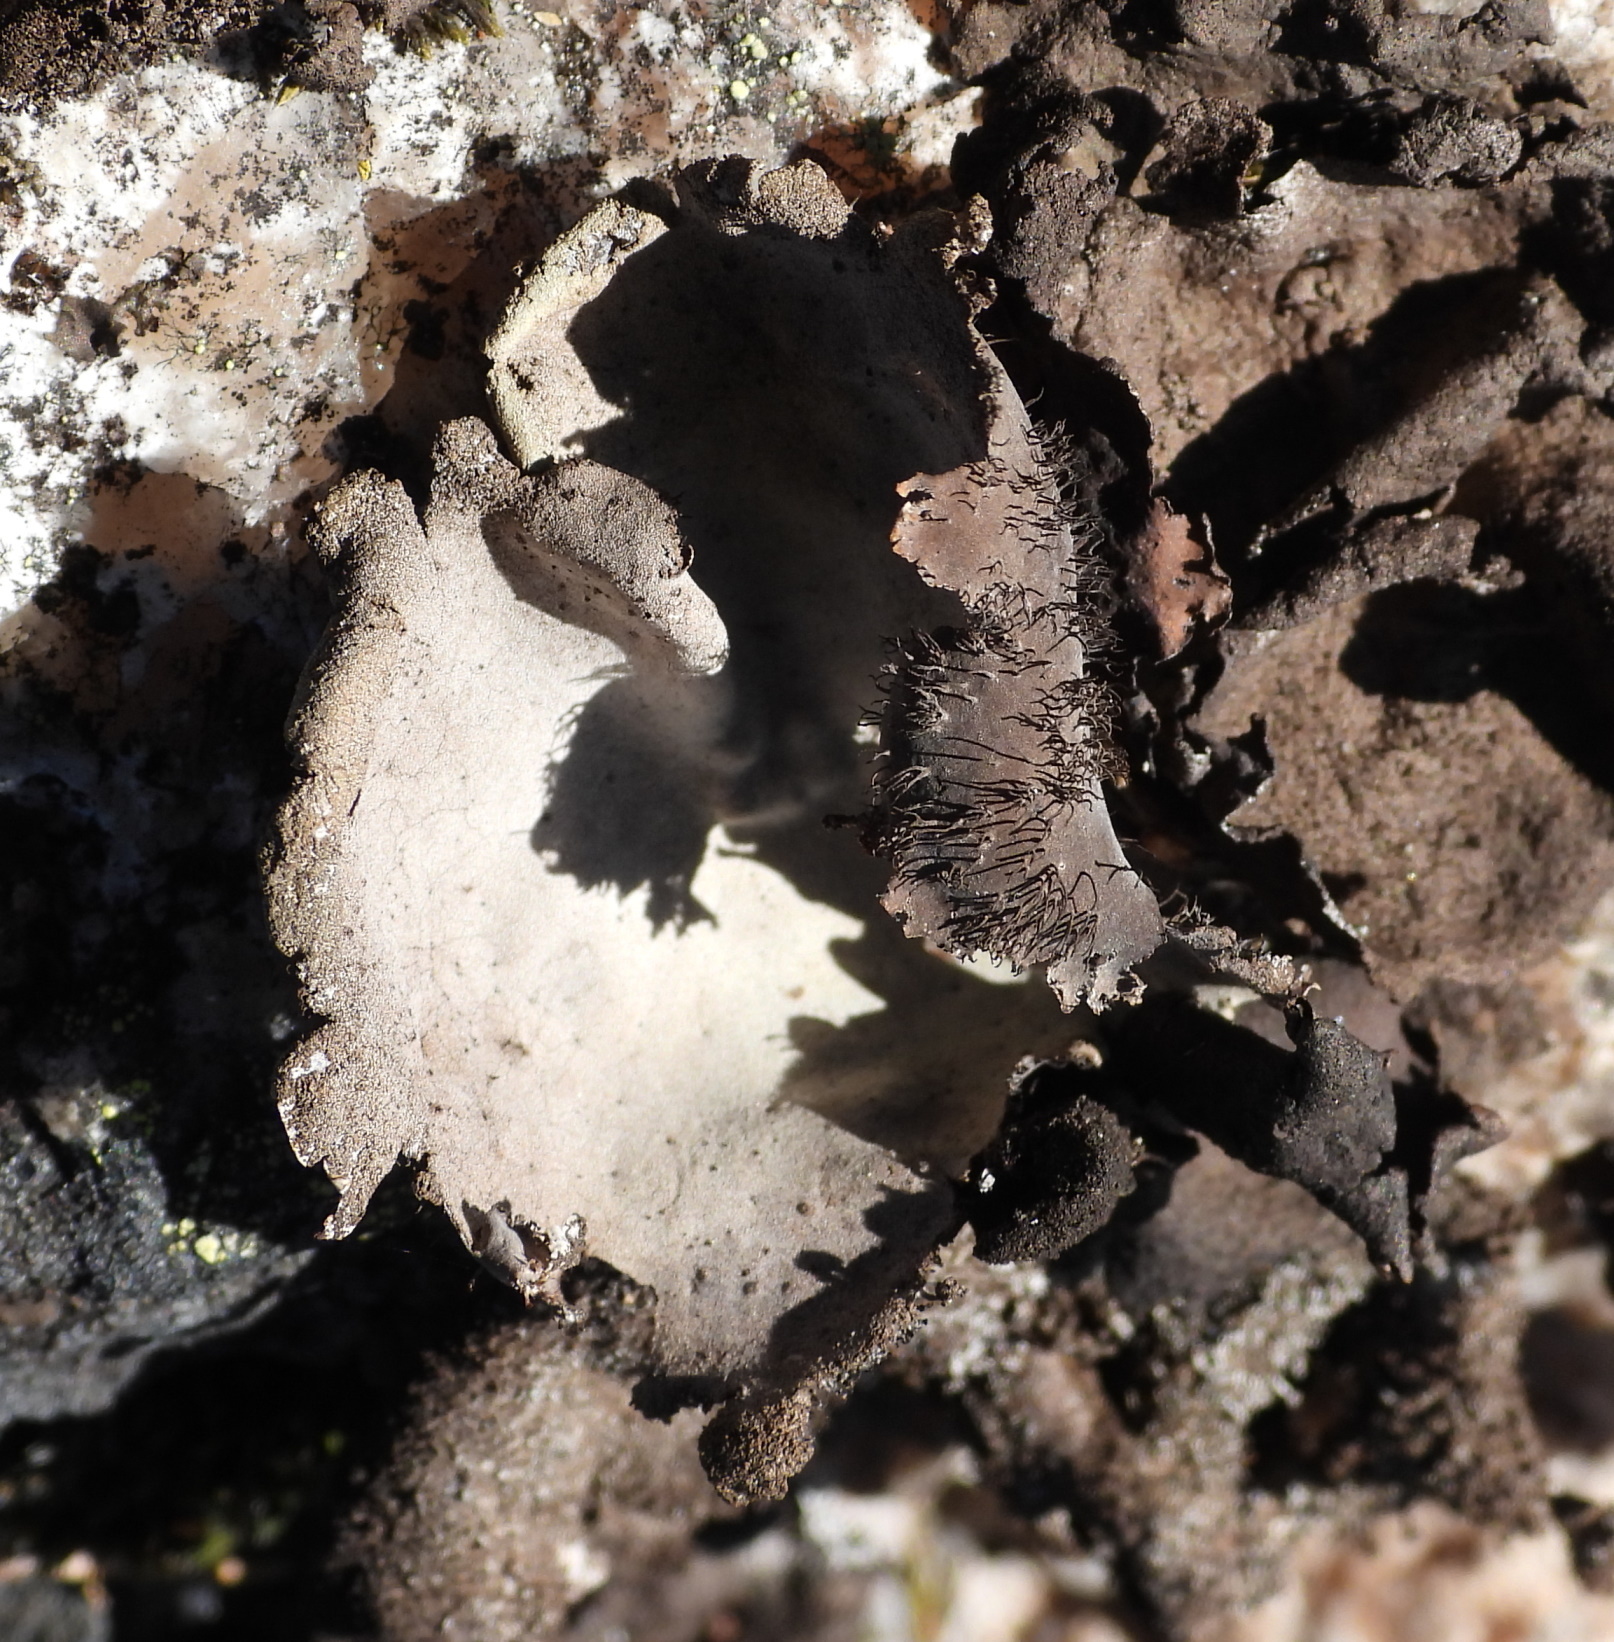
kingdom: Fungi
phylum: Ascomycota
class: Lecanoromycetes
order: Umbilicariales
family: Umbilicariaceae
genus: Umbilicaria
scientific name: Umbilicaria hirsuta
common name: Granulating rocktripe lichen
